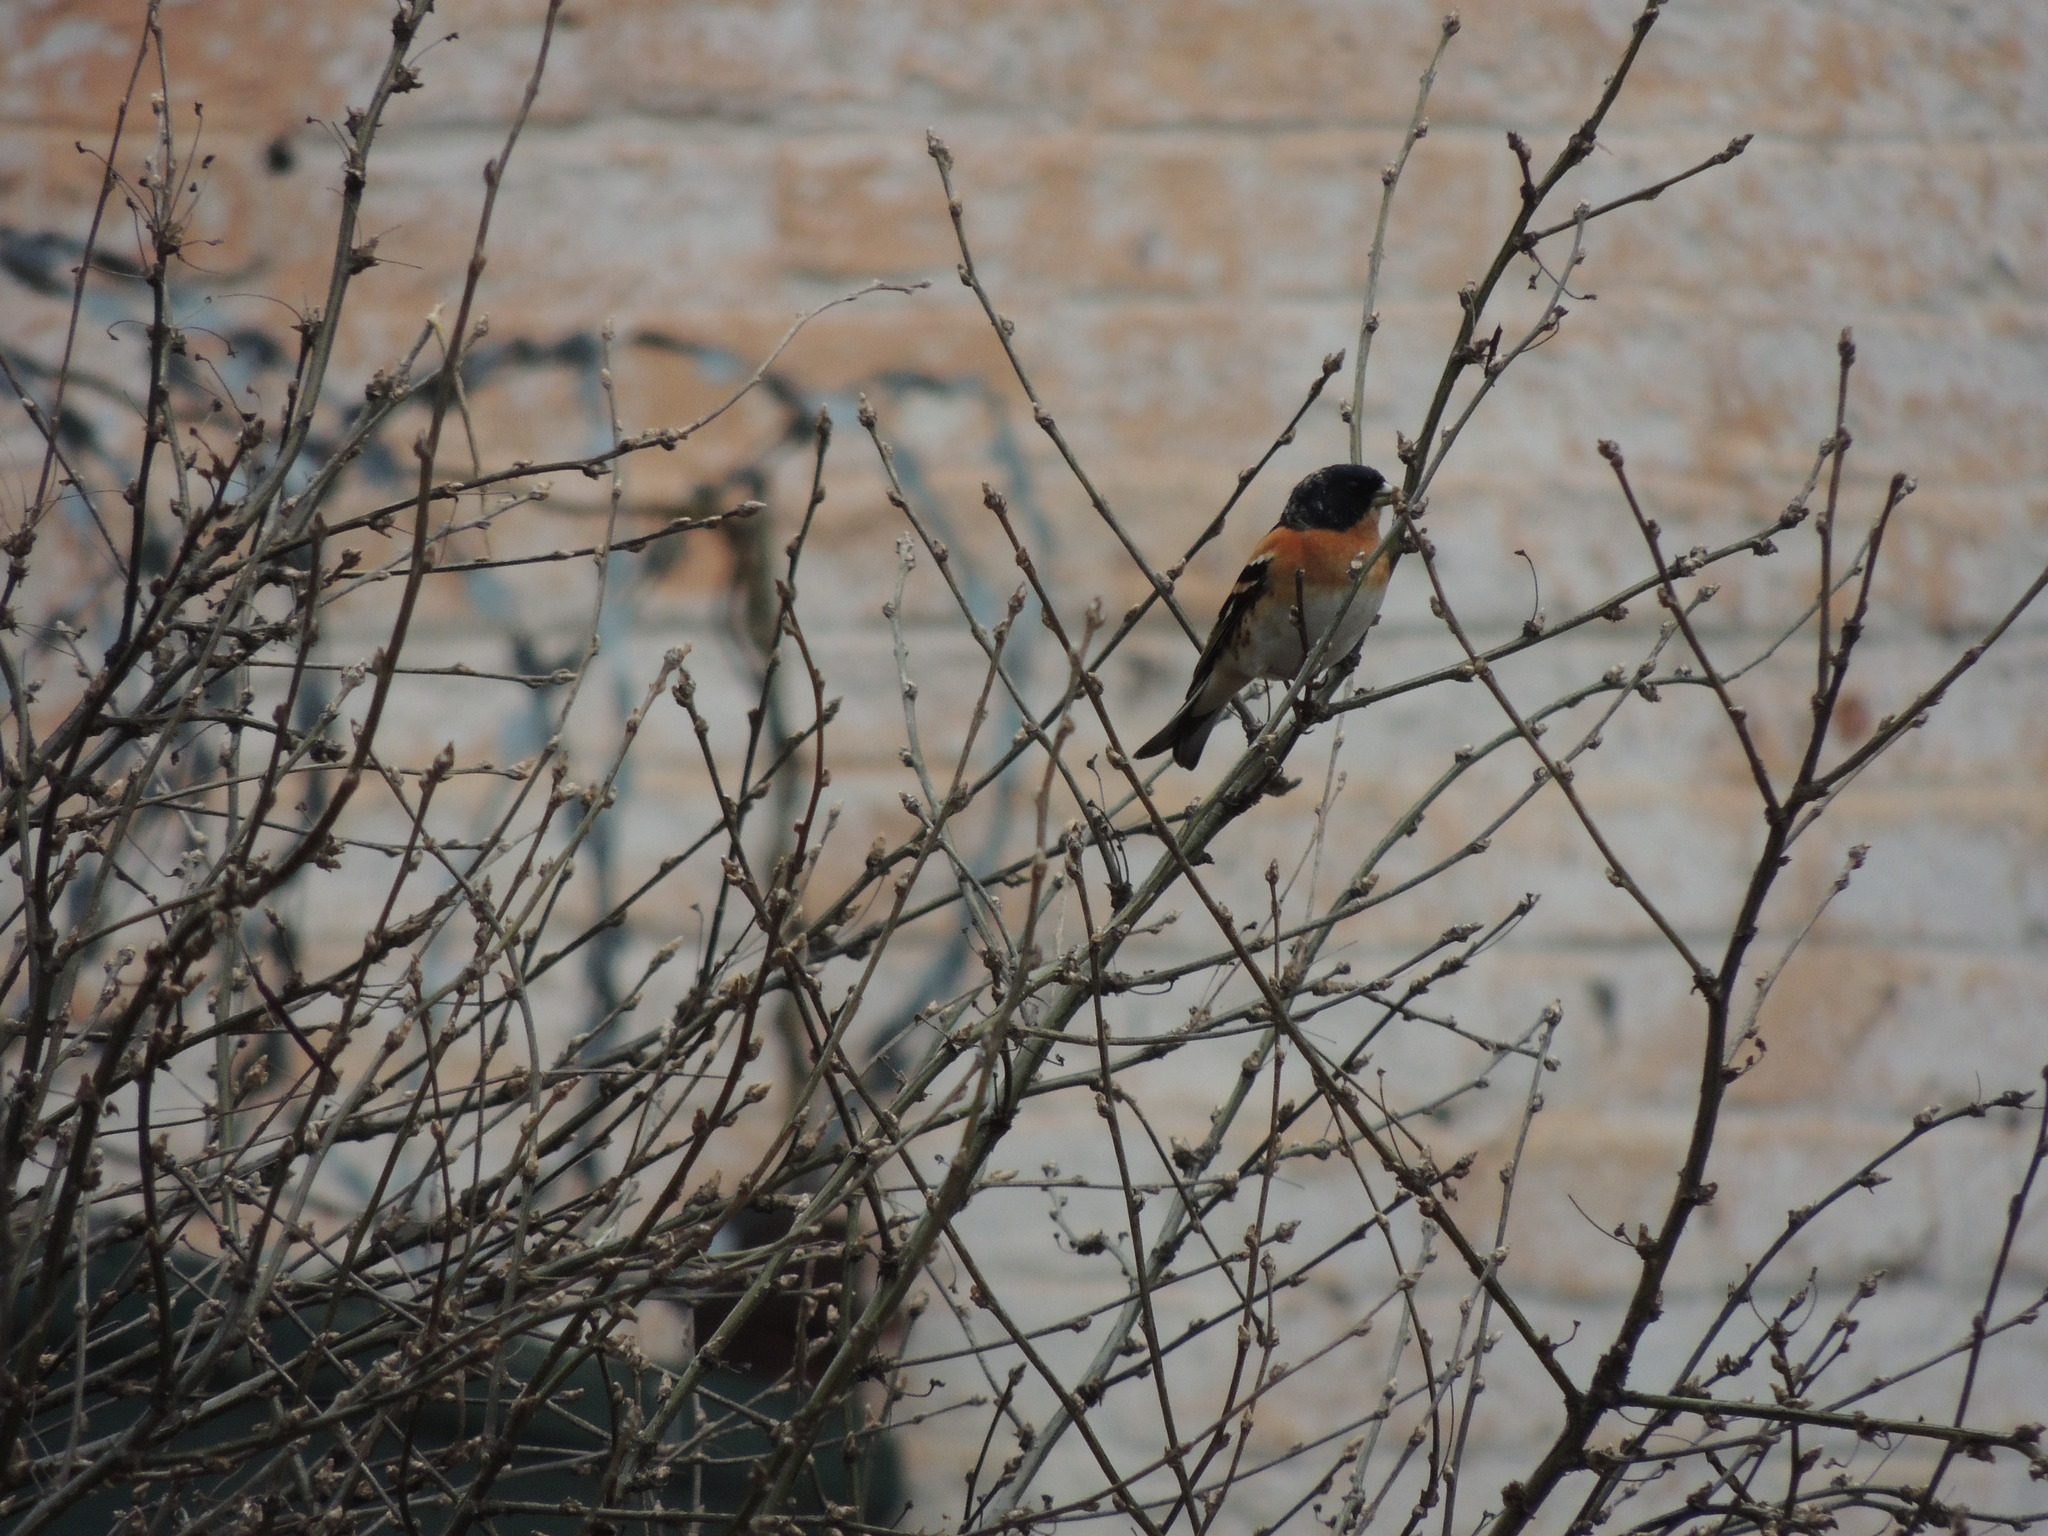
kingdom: Animalia
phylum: Chordata
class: Aves
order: Passeriformes
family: Fringillidae
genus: Fringilla
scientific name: Fringilla montifringilla
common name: Brambling
